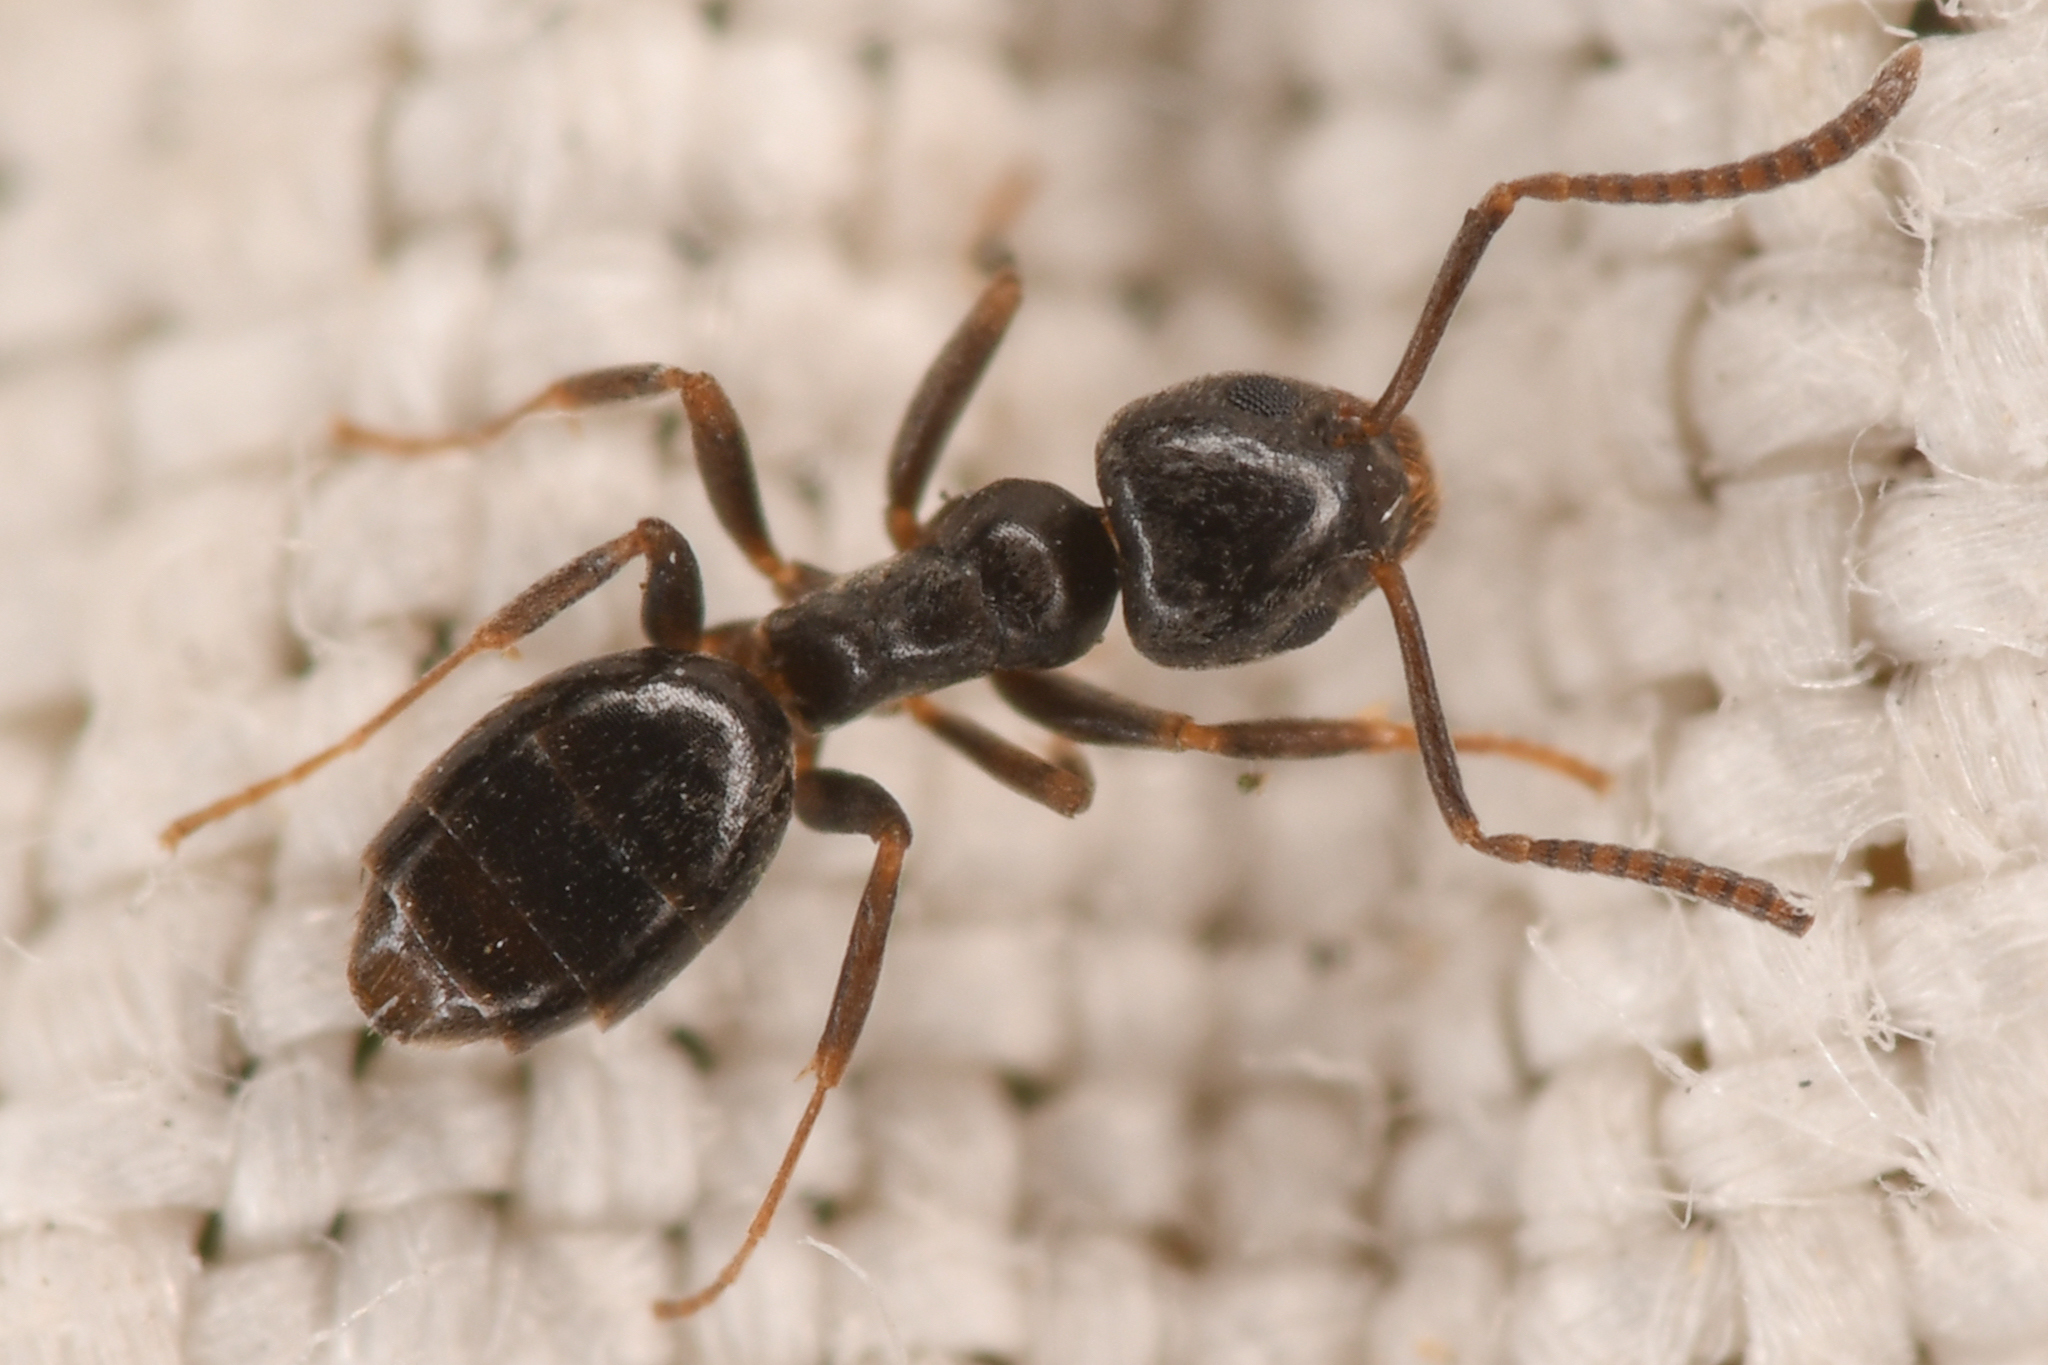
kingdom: Animalia
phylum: Arthropoda
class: Insecta
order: Hymenoptera
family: Formicidae
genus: Tapinoma
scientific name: Tapinoma sessile
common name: Odorous house ant
